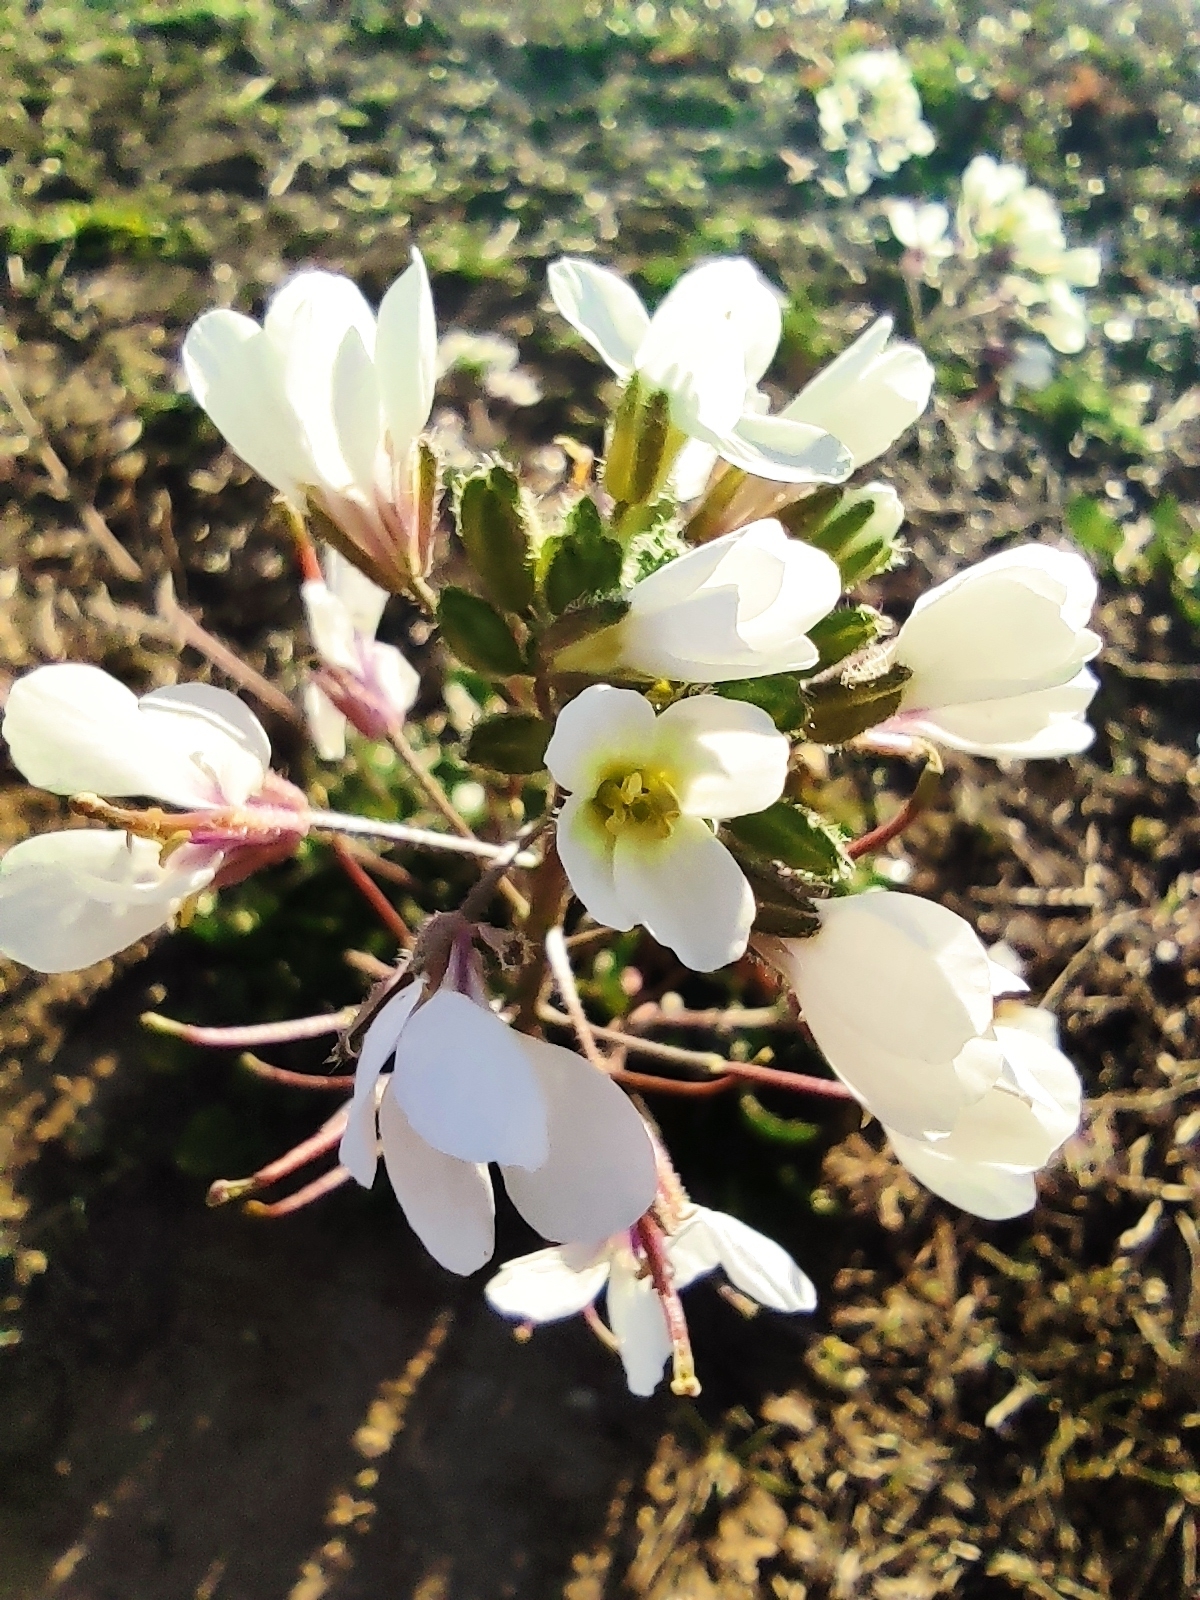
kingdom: Plantae
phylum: Tracheophyta
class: Magnoliopsida
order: Brassicales
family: Brassicaceae
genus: Diplotaxis
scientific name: Diplotaxis erucoides
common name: White rocket
